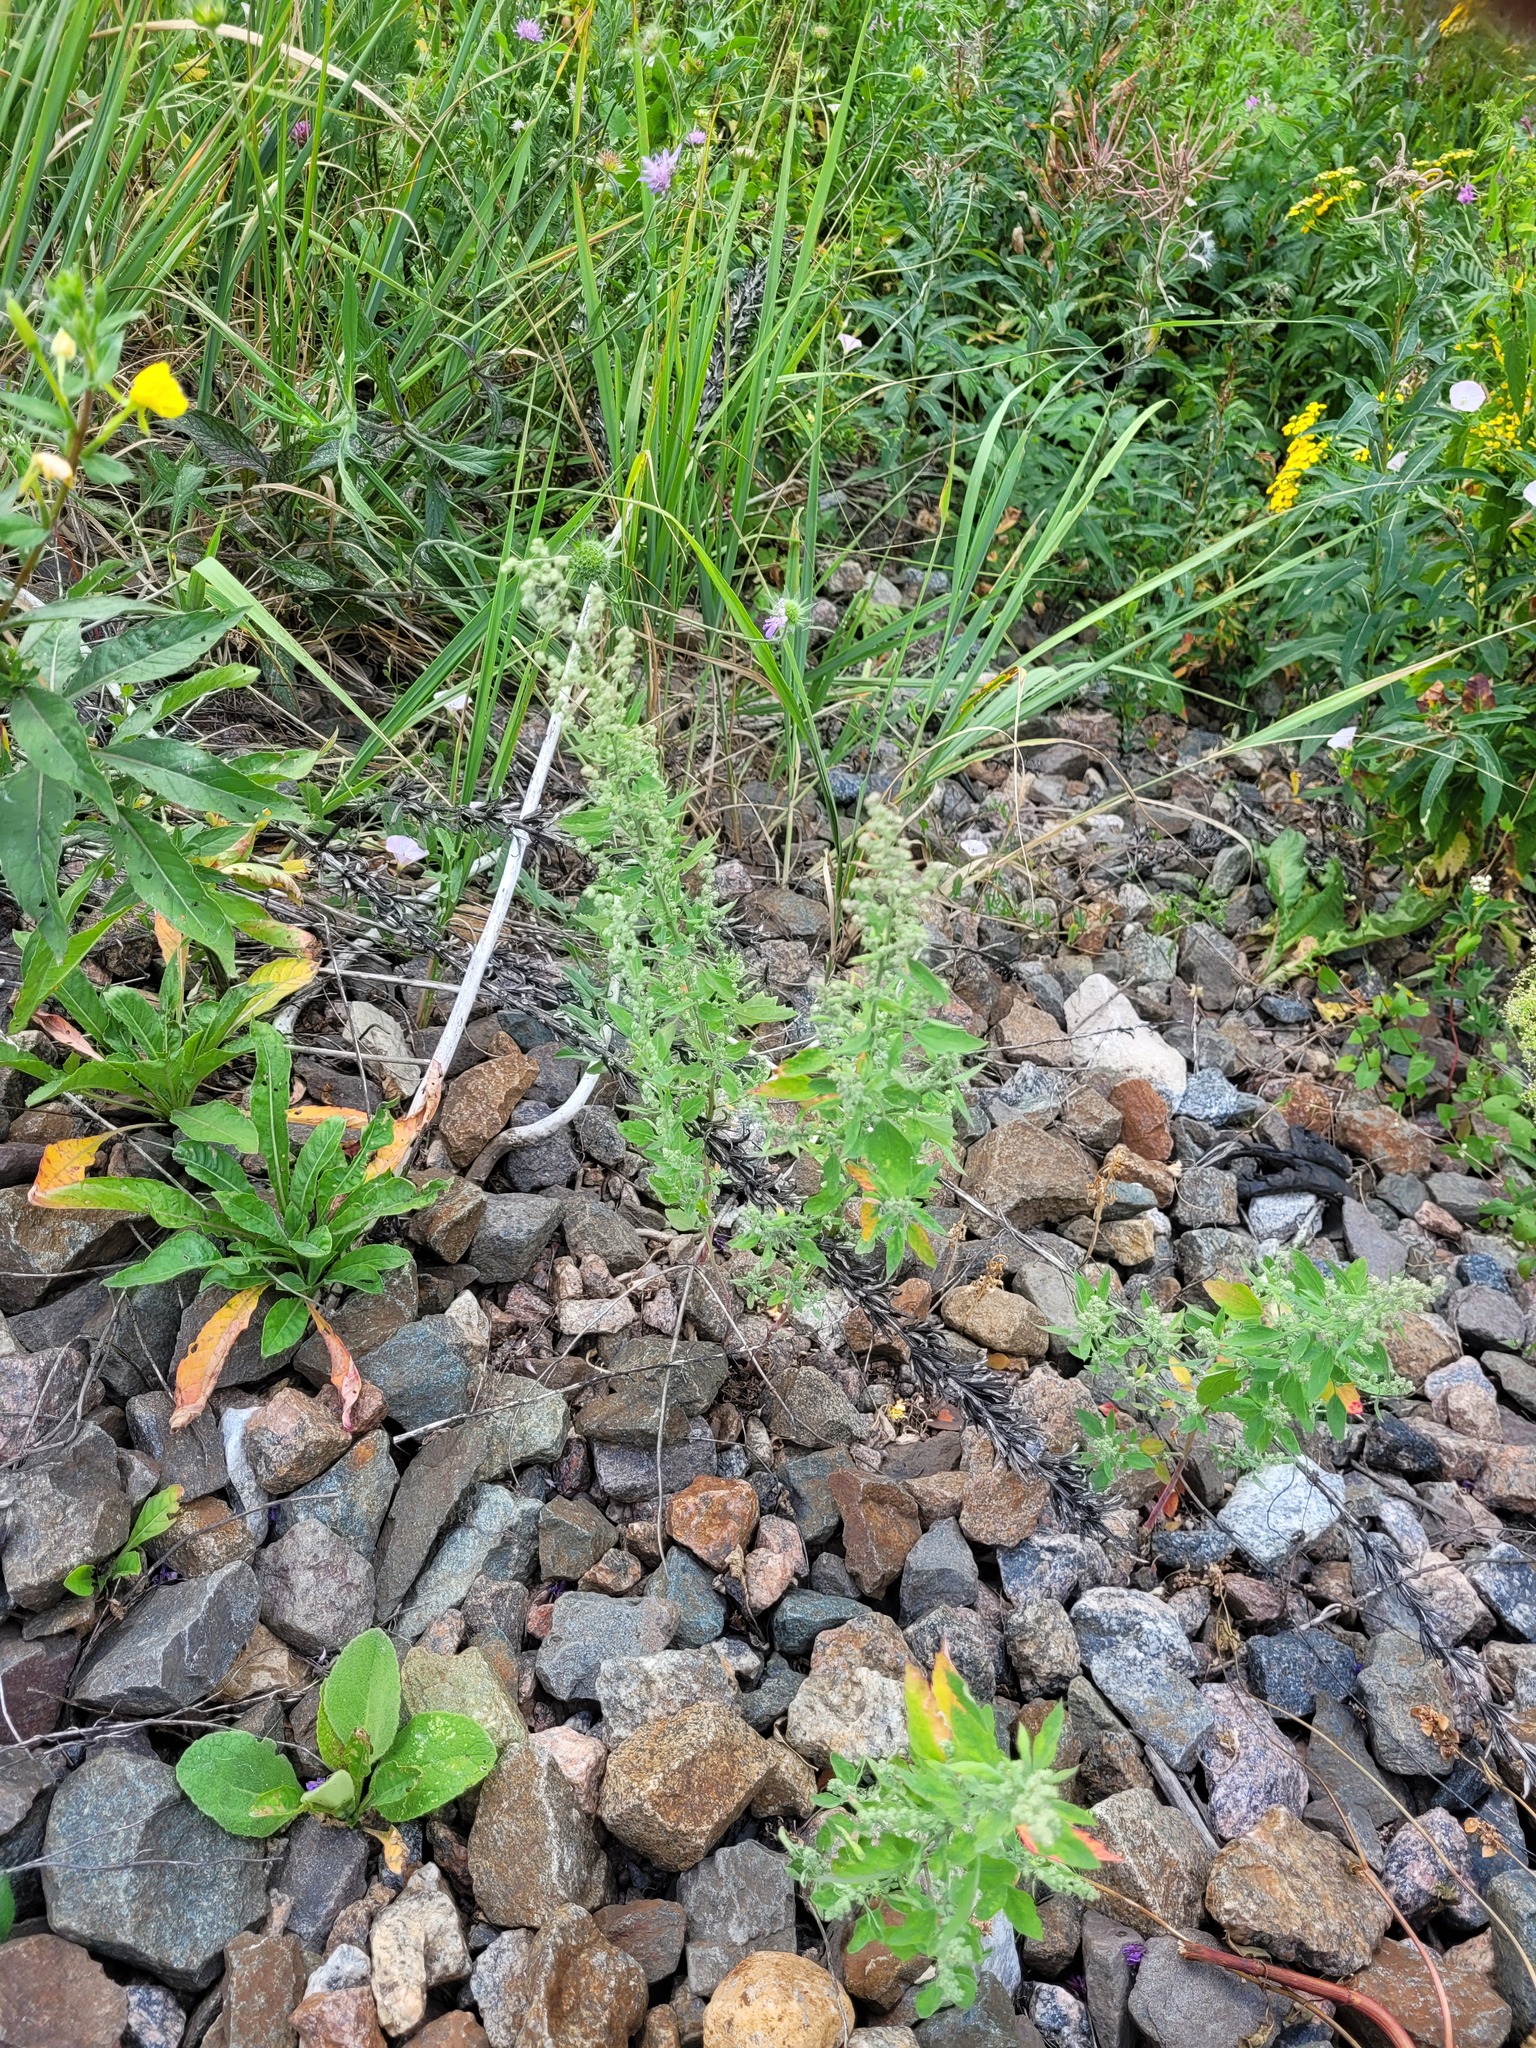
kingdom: Plantae
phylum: Tracheophyta
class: Magnoliopsida
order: Caryophyllales
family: Amaranthaceae
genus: Chenopodium
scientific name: Chenopodium album
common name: Fat-hen
